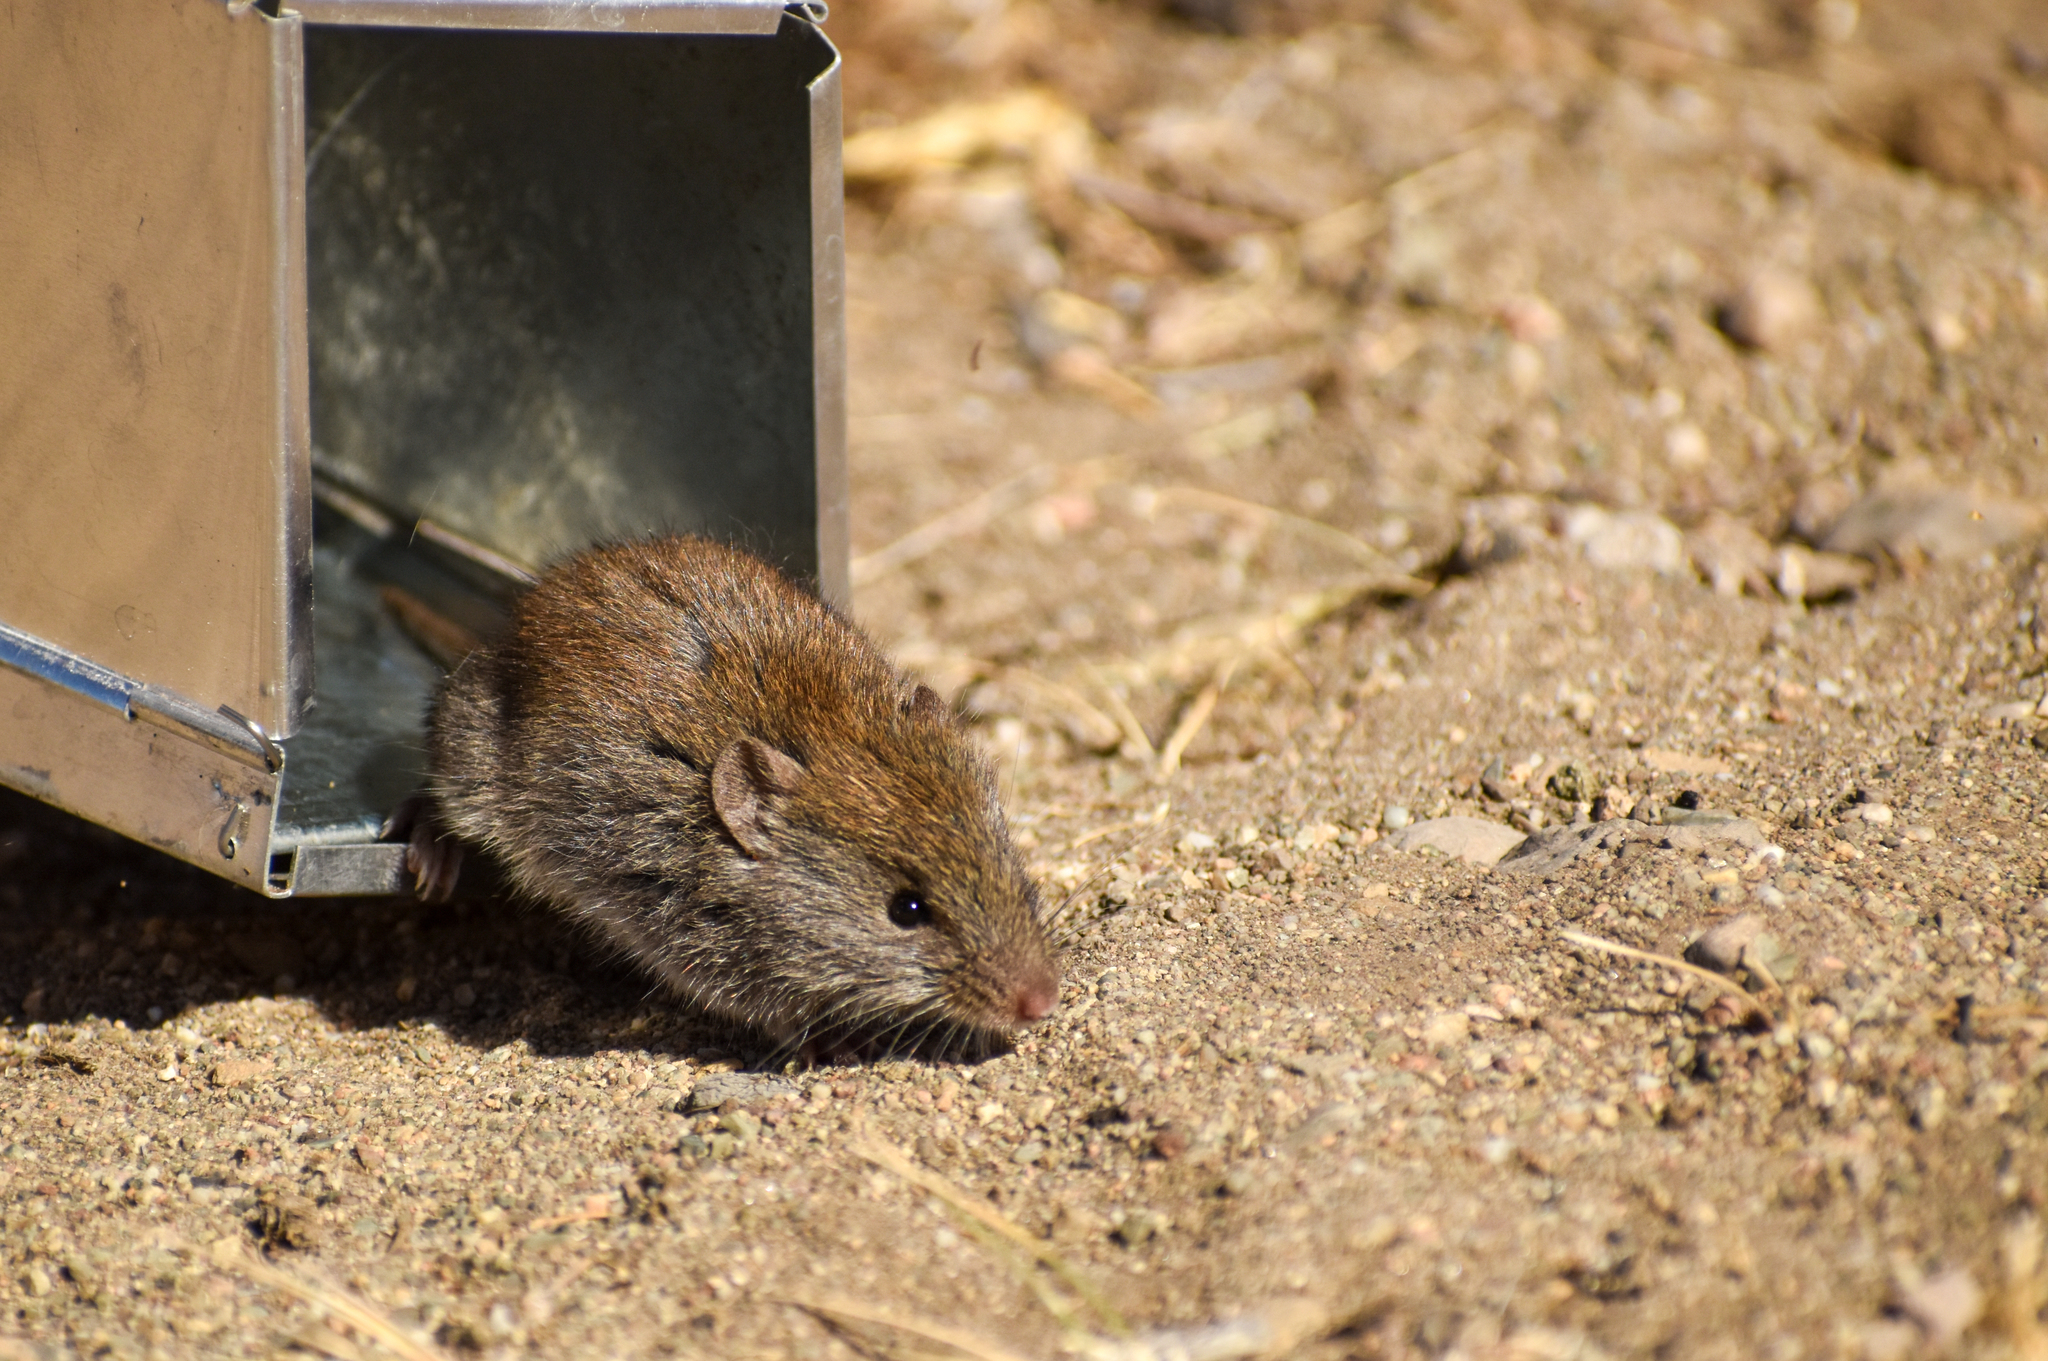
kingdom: Animalia
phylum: Chordata
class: Mammalia
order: Rodentia
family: Cricetidae
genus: Abrothrix
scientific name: Abrothrix longipilis
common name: Long-haired akodont
